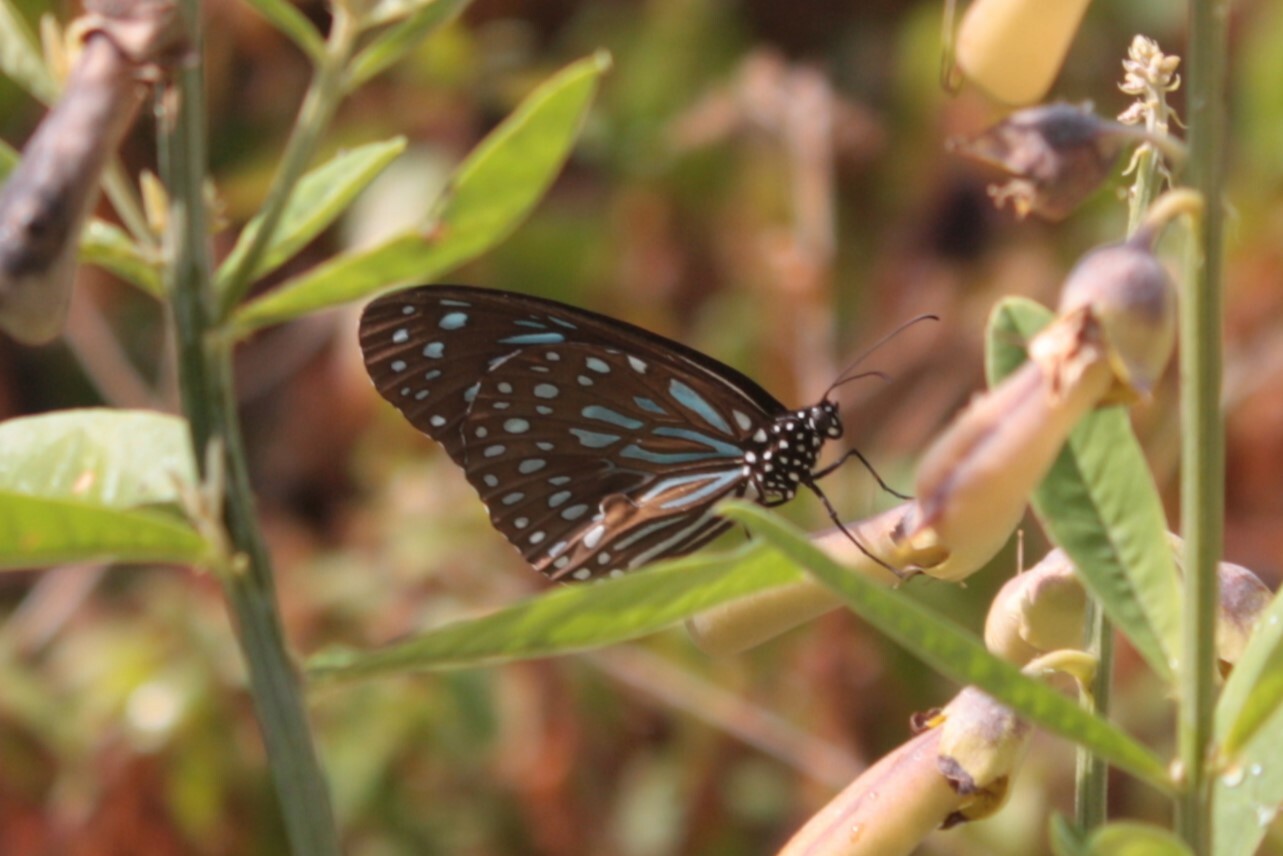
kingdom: Animalia
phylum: Arthropoda
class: Insecta
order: Lepidoptera
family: Nymphalidae
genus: Tirumala
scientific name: Tirumala septentrionis
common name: Dark blue tiger butterfly
